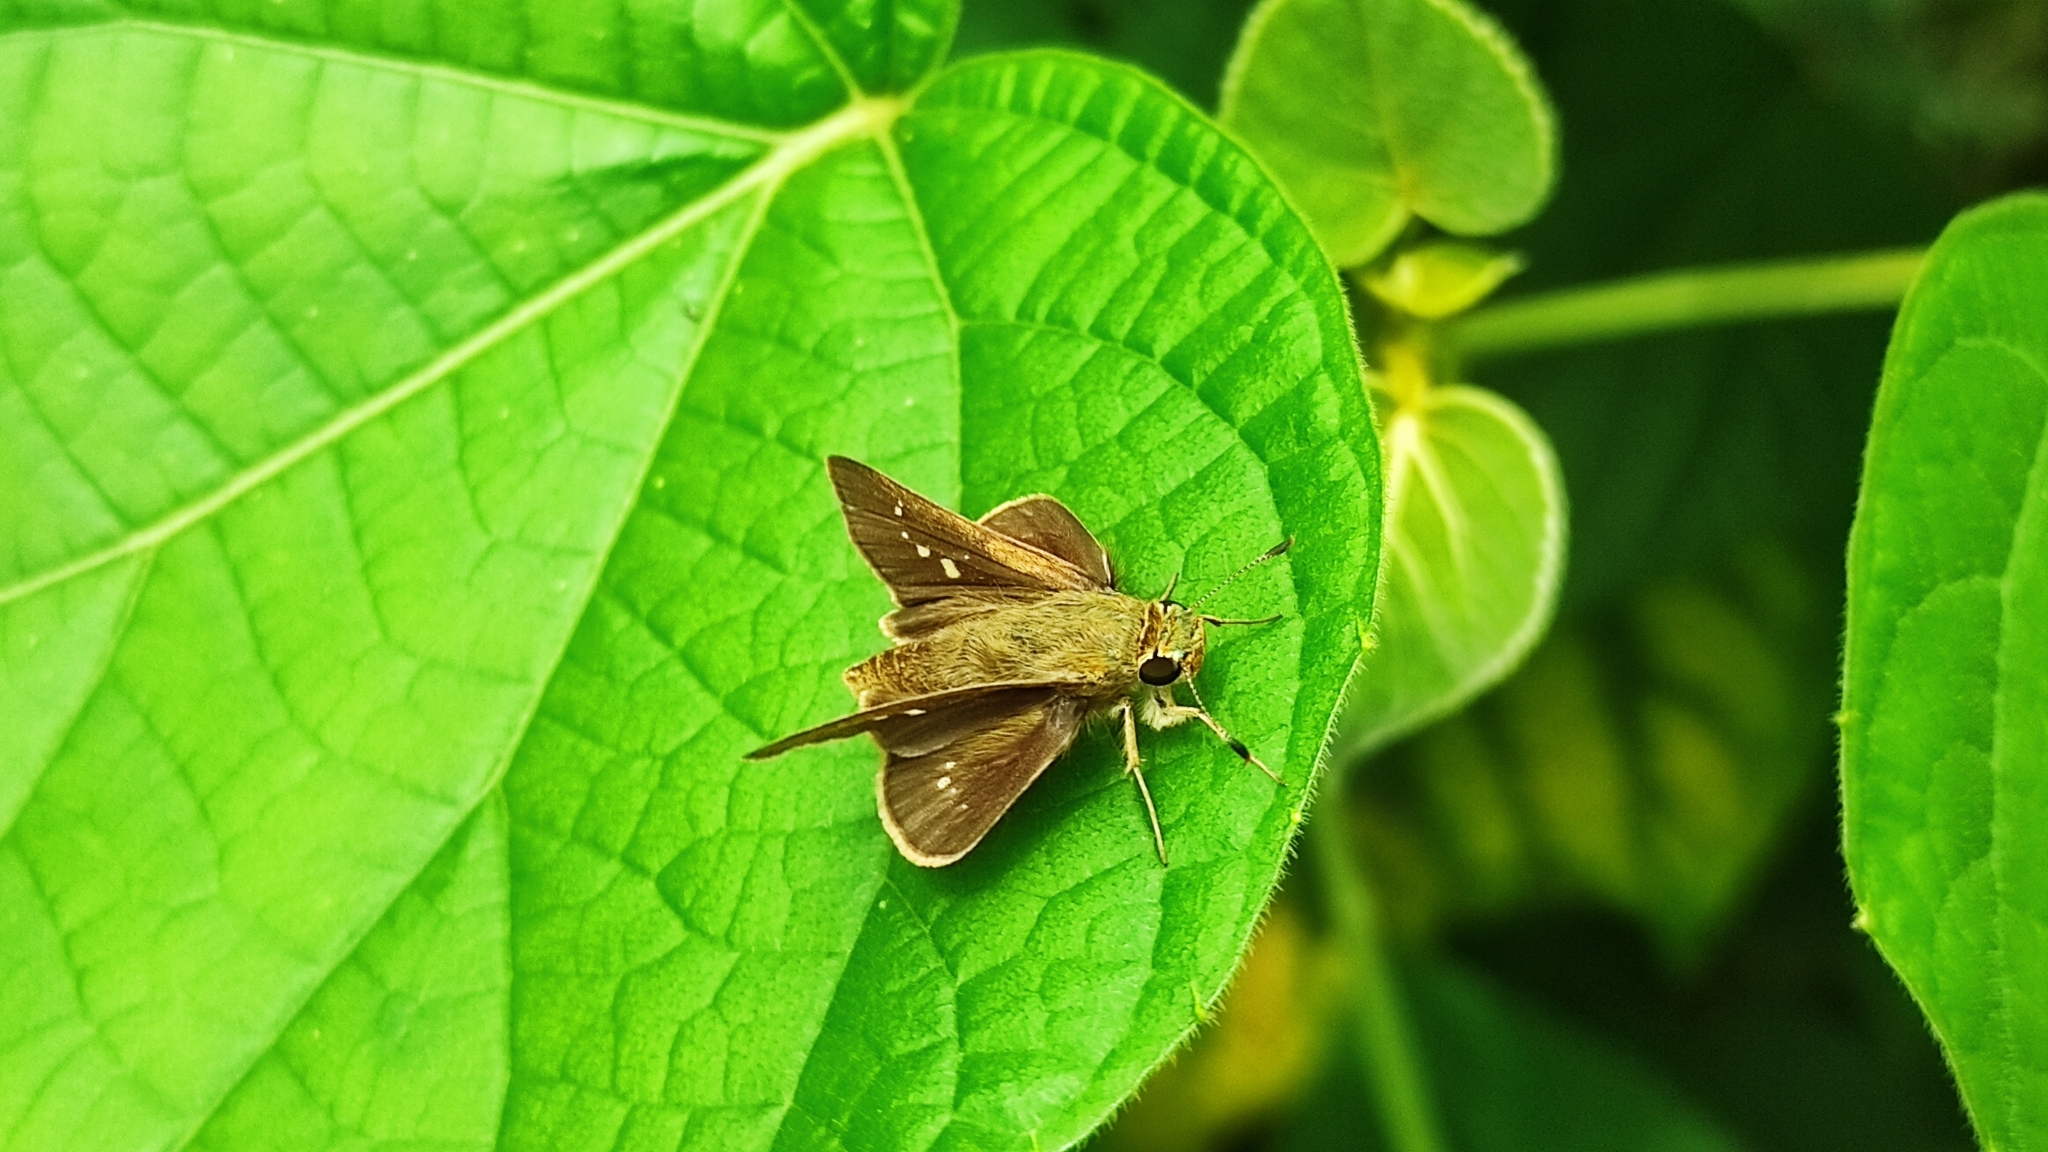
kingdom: Animalia
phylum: Arthropoda
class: Insecta
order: Lepidoptera
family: Hesperiidae
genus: Parnara
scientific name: Parnara naso
